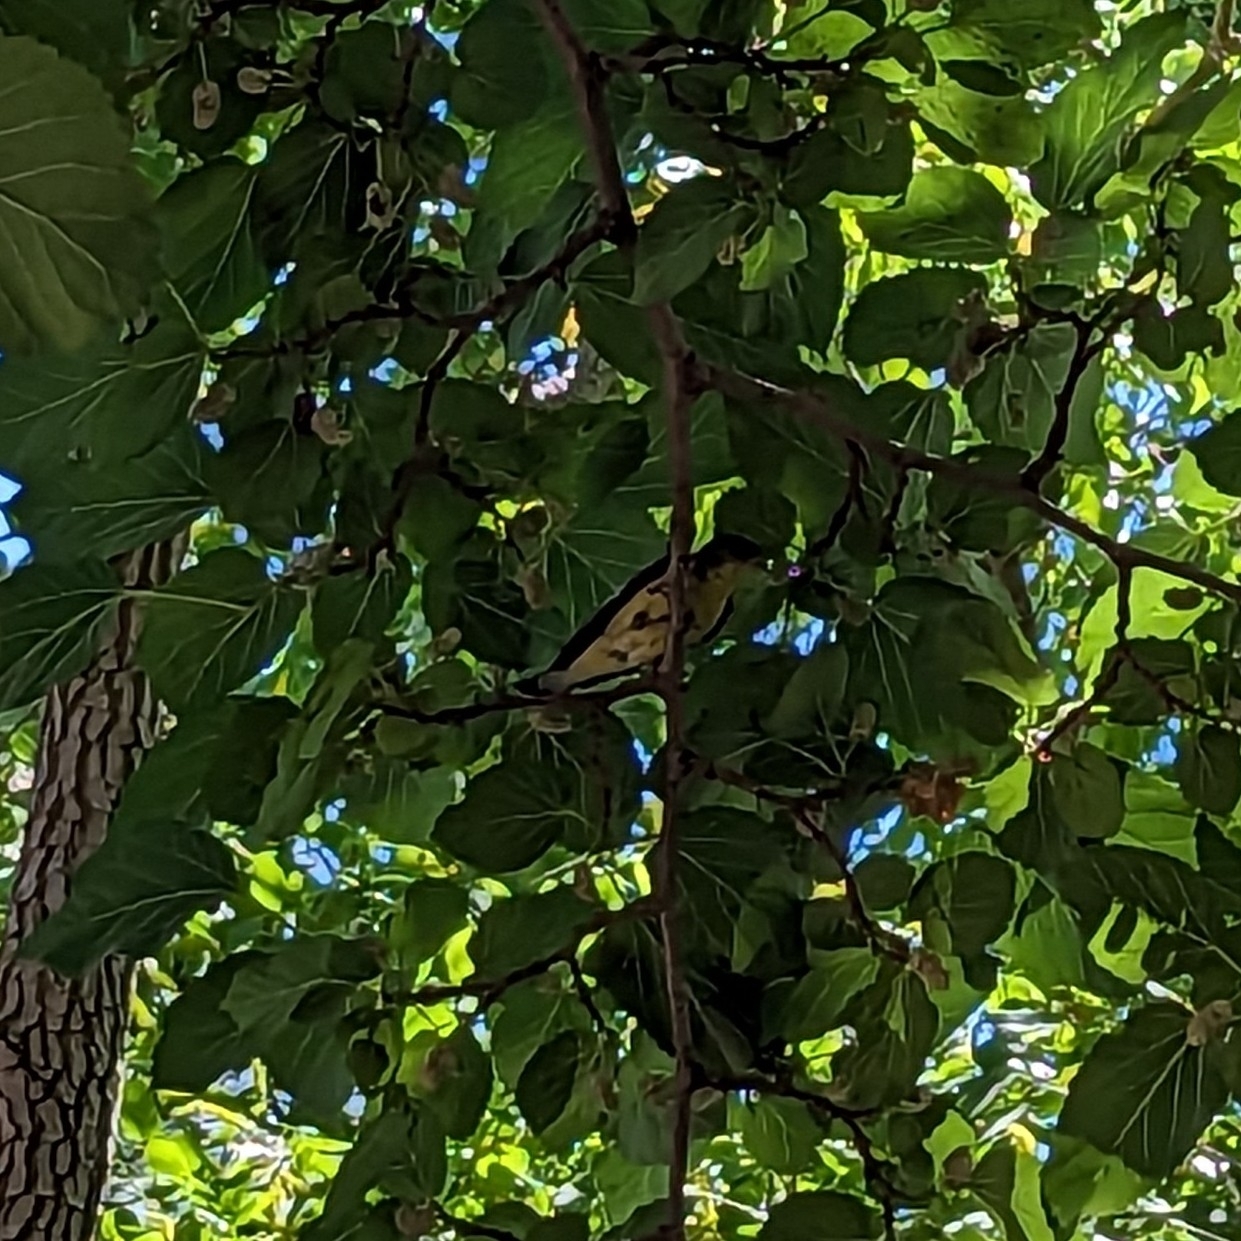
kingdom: Animalia
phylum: Chordata
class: Aves
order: Passeriformes
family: Fringillidae
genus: Spinus
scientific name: Spinus psaltria
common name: Lesser goldfinch
